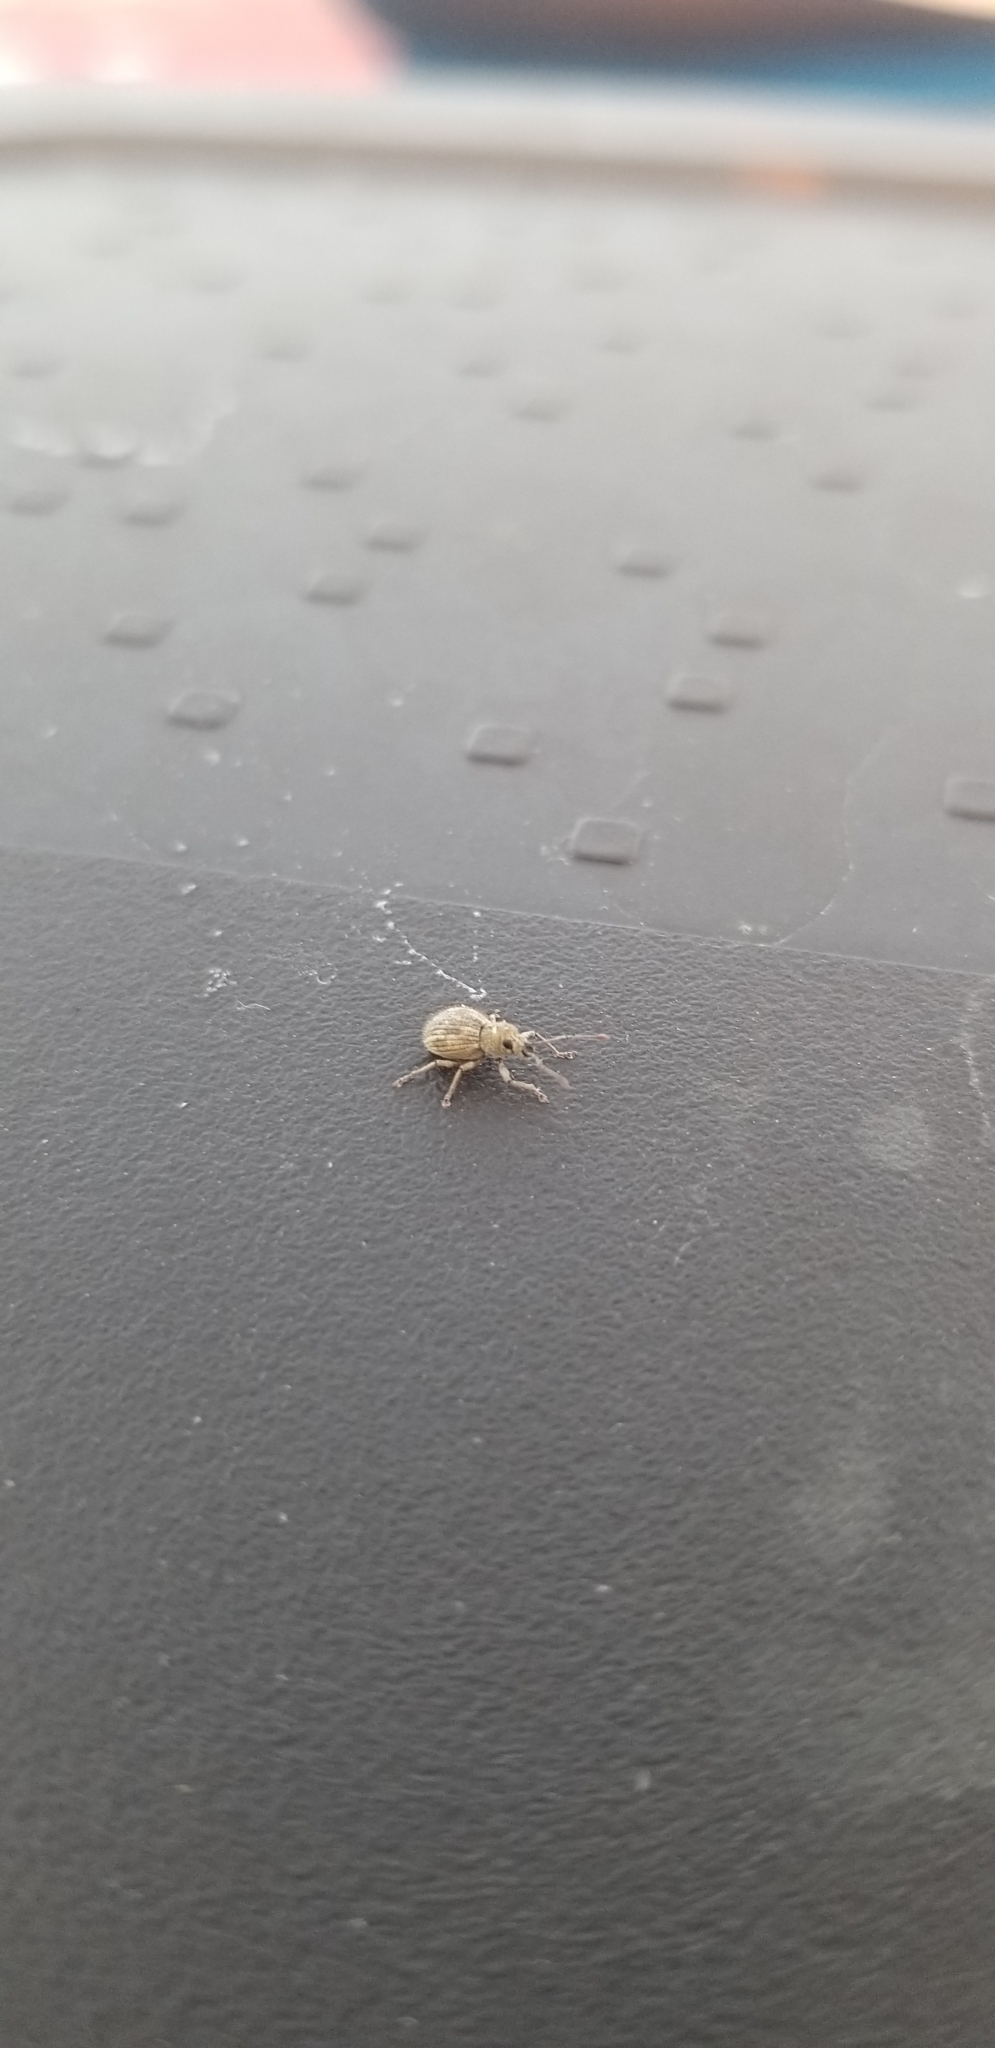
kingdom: Animalia
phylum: Arthropoda
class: Insecta
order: Coleoptera
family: Curculionidae
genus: Calomycterus
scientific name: Calomycterus setarius
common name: Weevil
